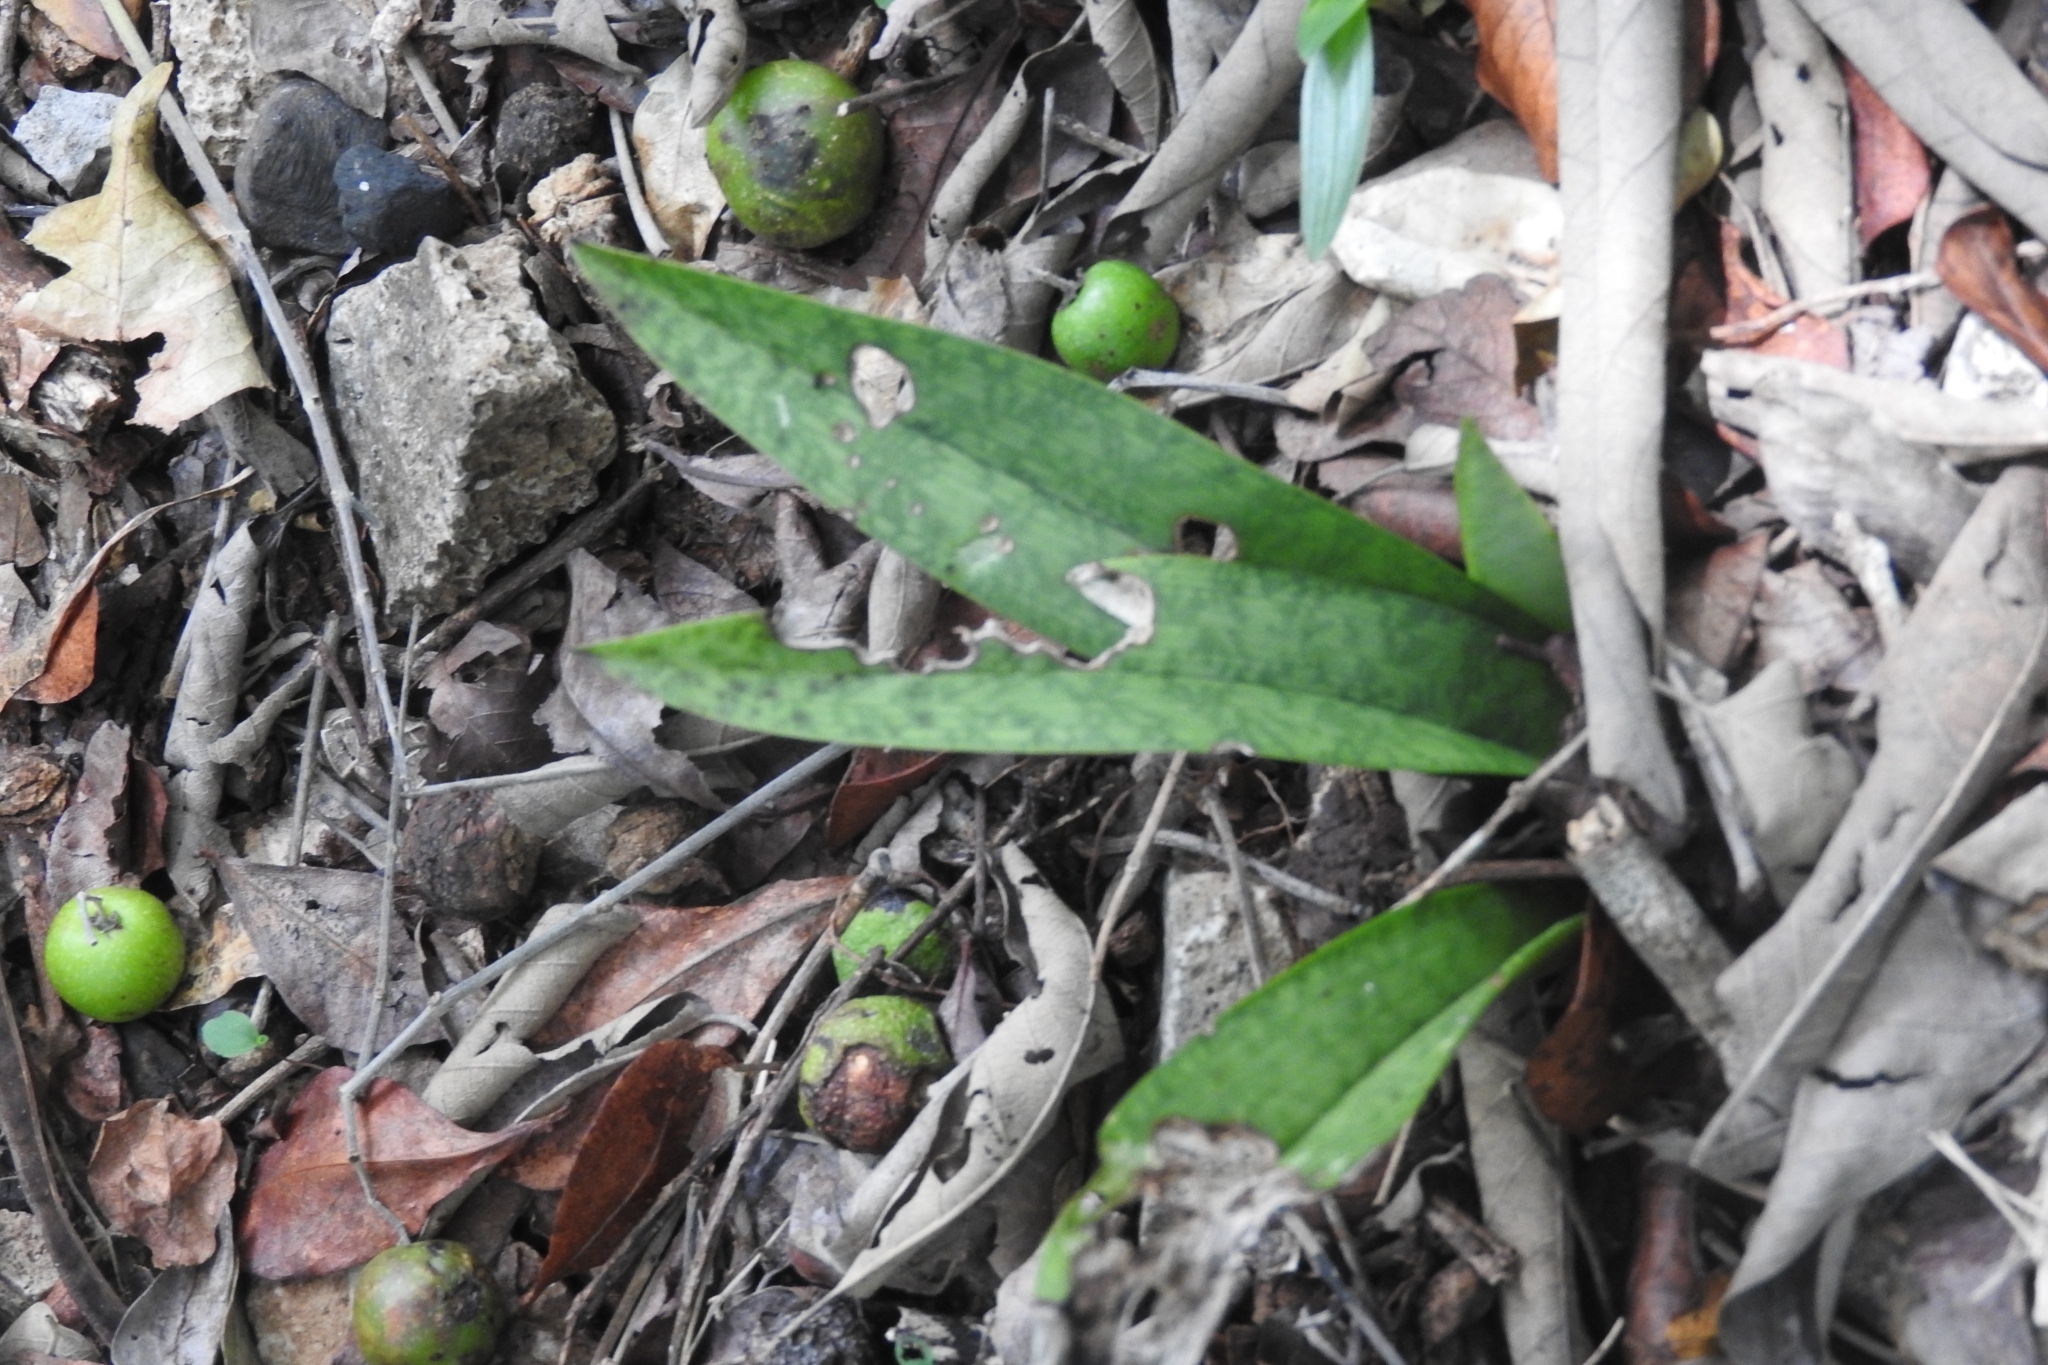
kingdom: Plantae
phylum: Tracheophyta
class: Liliopsida
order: Asparagales
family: Orchidaceae
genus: Eulophia
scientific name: Eulophia maculata
